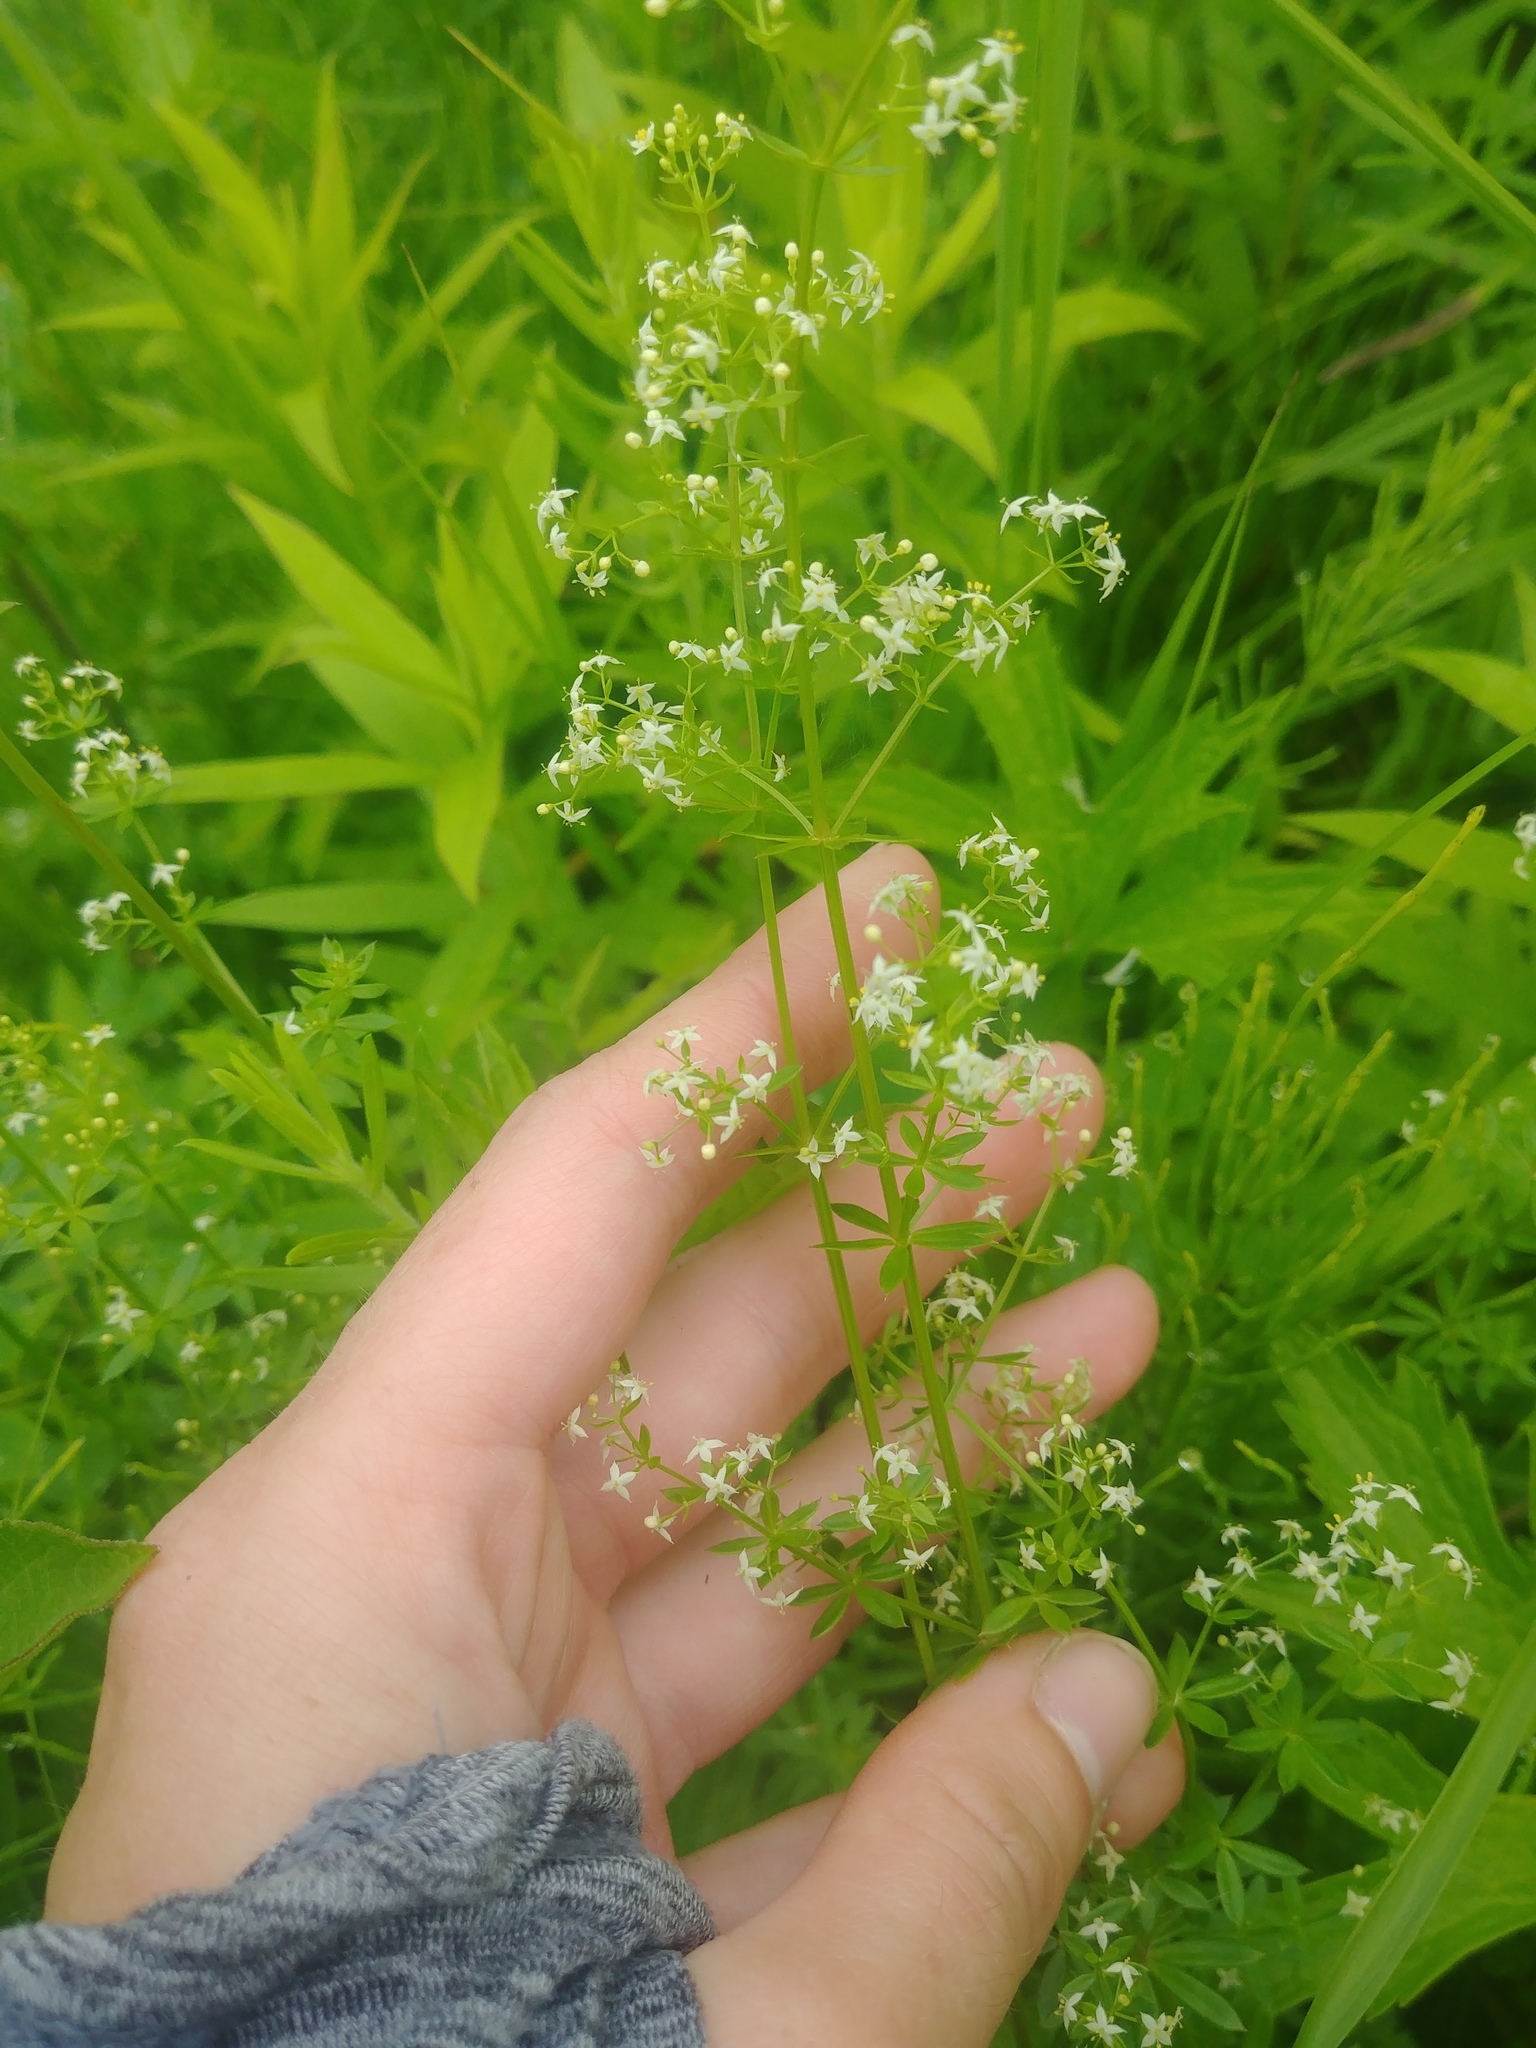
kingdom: Plantae
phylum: Tracheophyta
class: Magnoliopsida
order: Gentianales
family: Rubiaceae
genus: Galium
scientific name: Galium mollugo
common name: Hedge bedstraw
